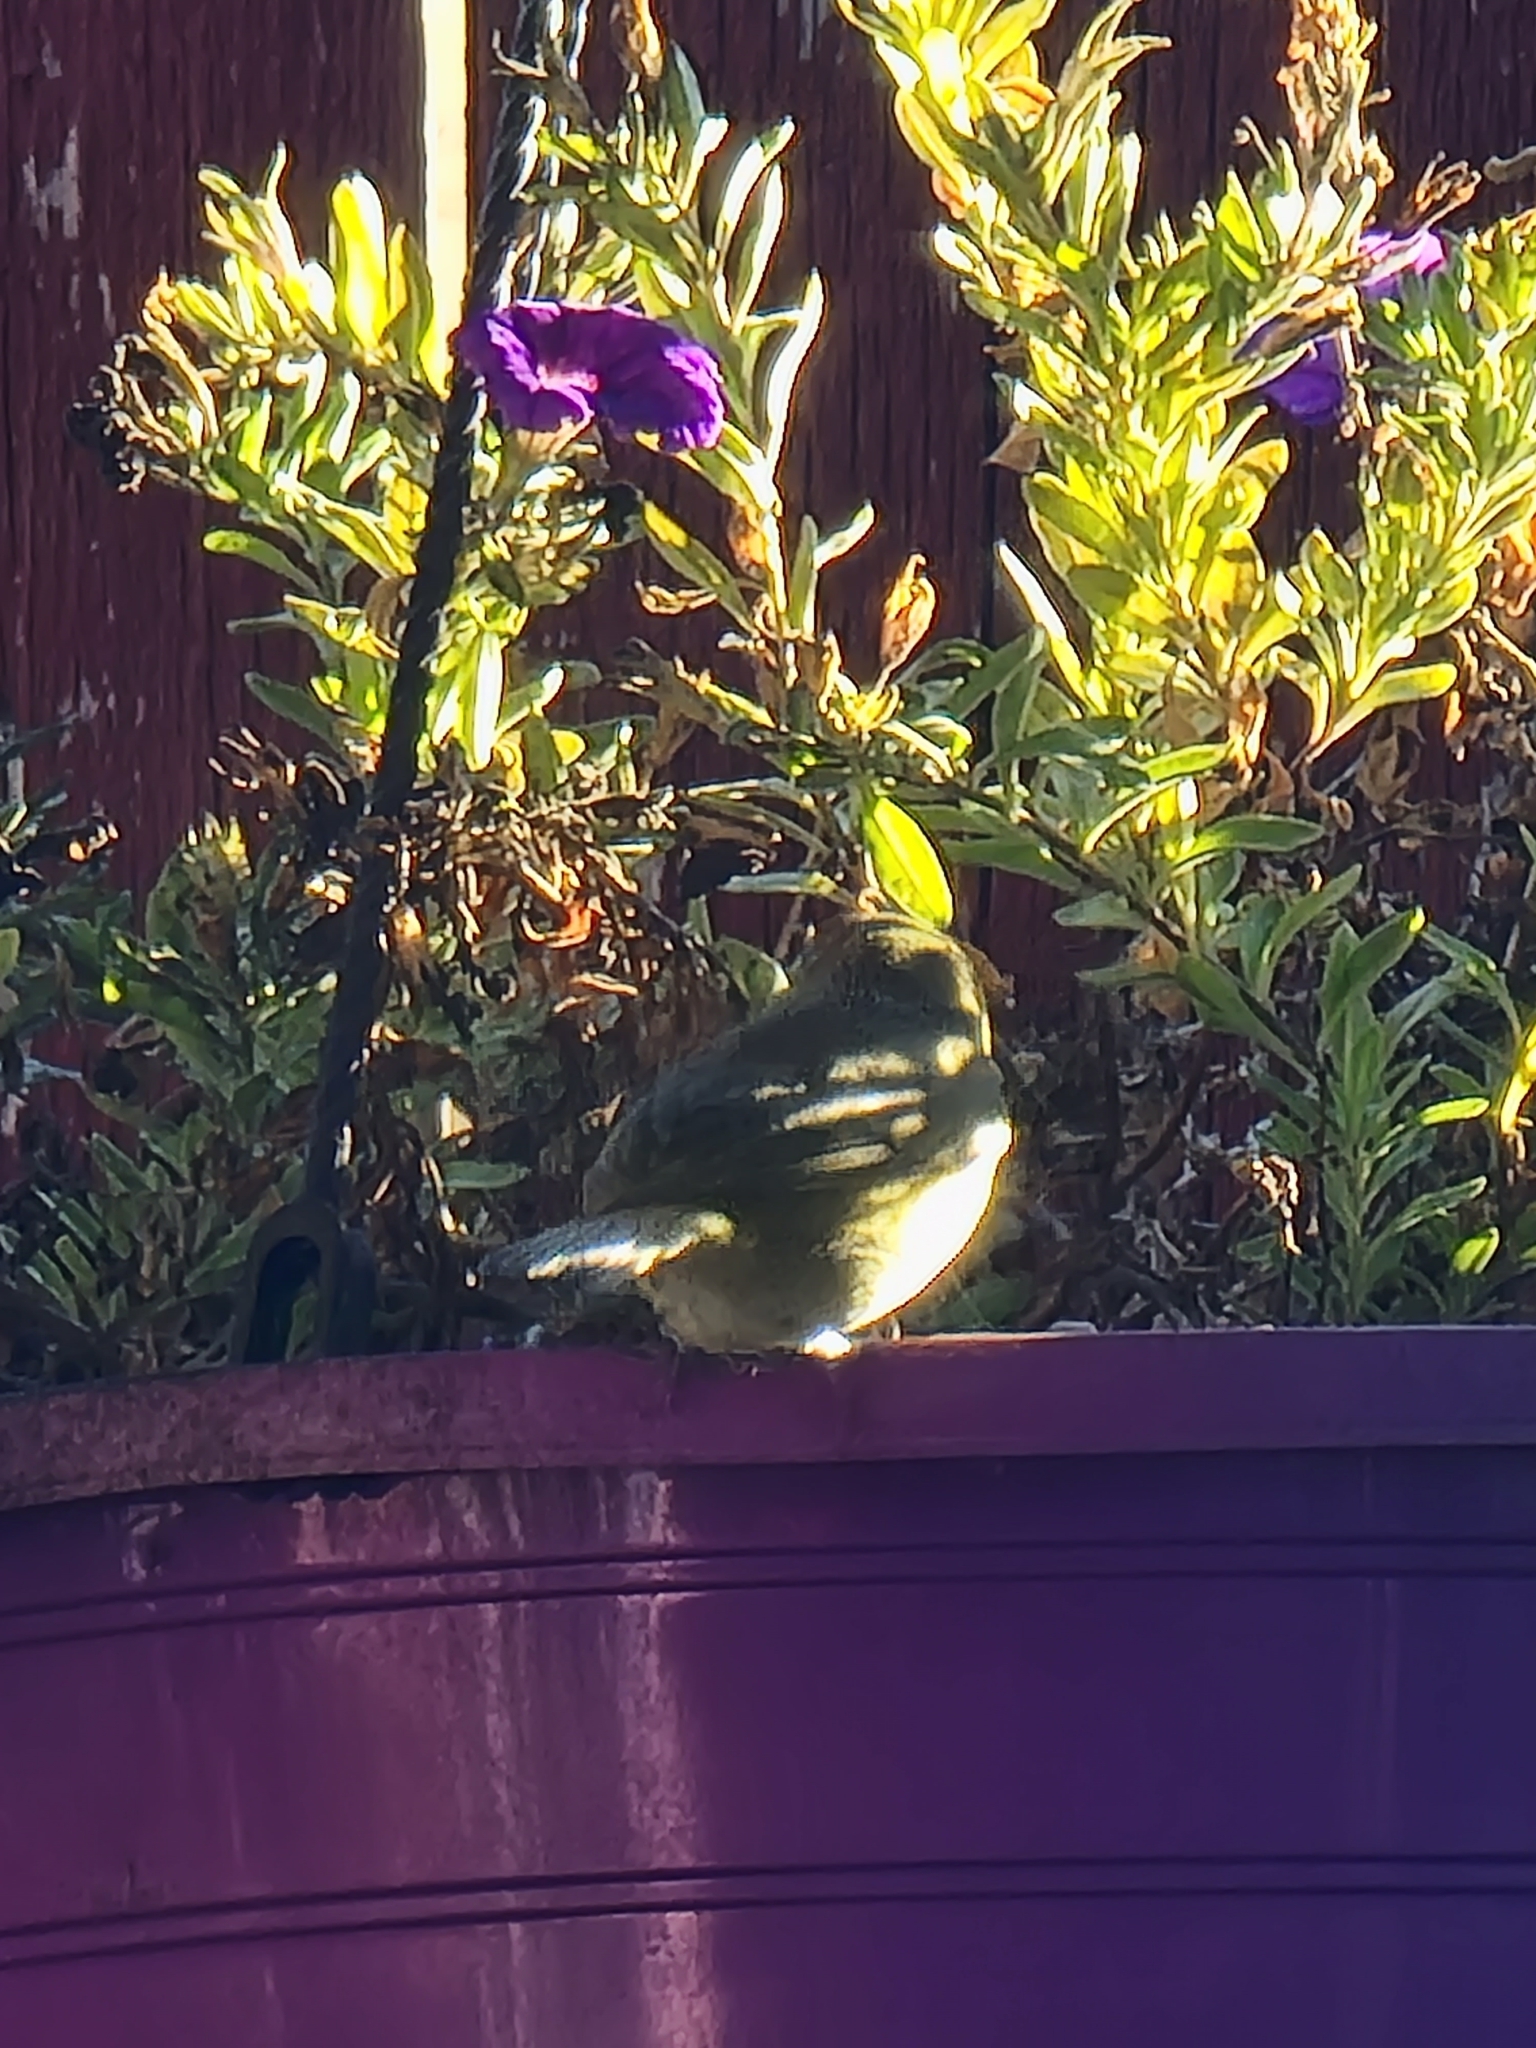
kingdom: Animalia
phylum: Chordata
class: Aves
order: Passeriformes
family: Parulidae
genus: Leiothlypis
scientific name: Leiothlypis celata
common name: Orange-crowned warbler
